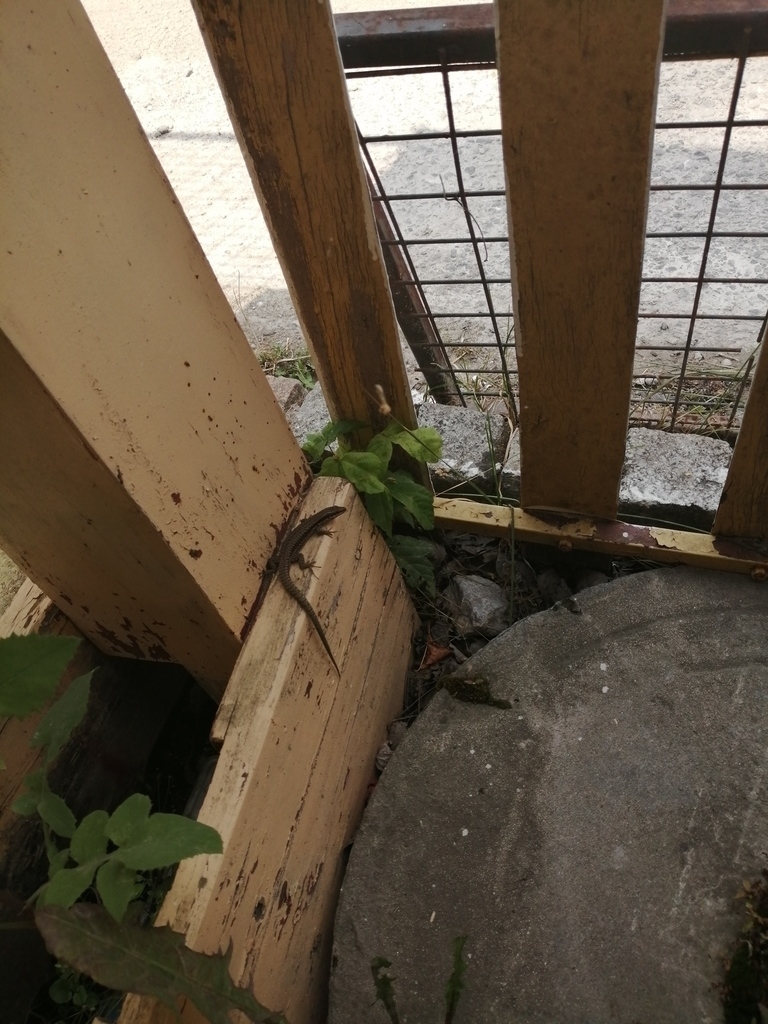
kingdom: Animalia
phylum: Chordata
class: Squamata
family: Lacertidae
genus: Podarcis
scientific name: Podarcis muralis
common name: Common wall lizard
